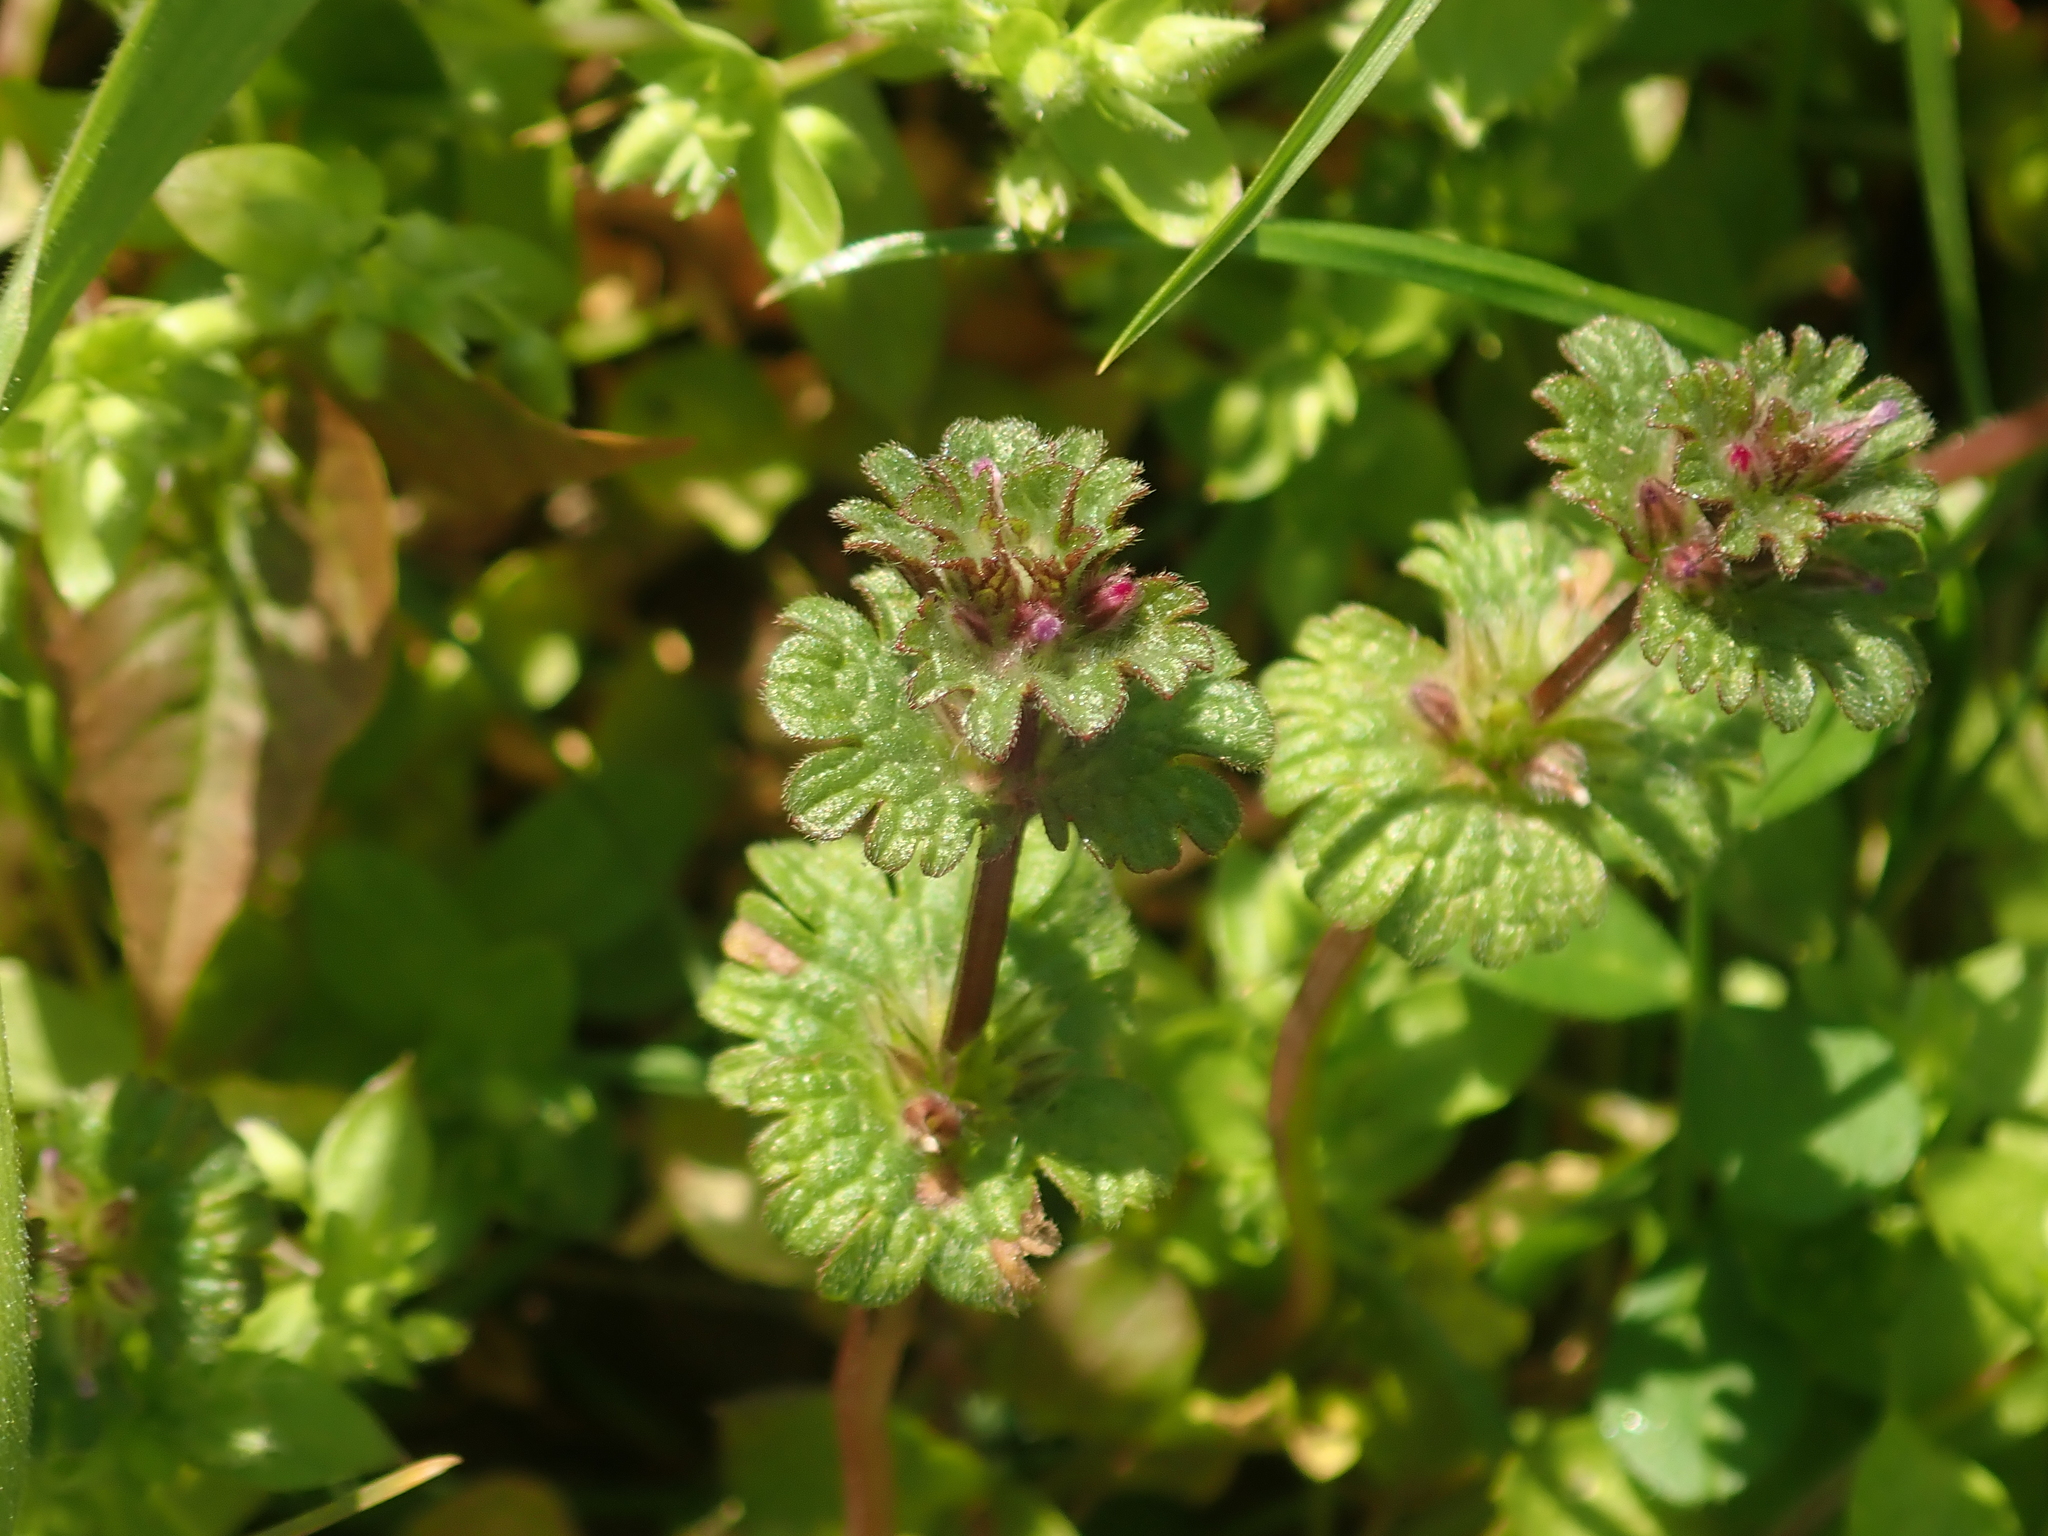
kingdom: Plantae
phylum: Tracheophyta
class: Magnoliopsida
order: Lamiales
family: Lamiaceae
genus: Lamium
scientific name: Lamium amplexicaule
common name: Henbit dead-nettle
